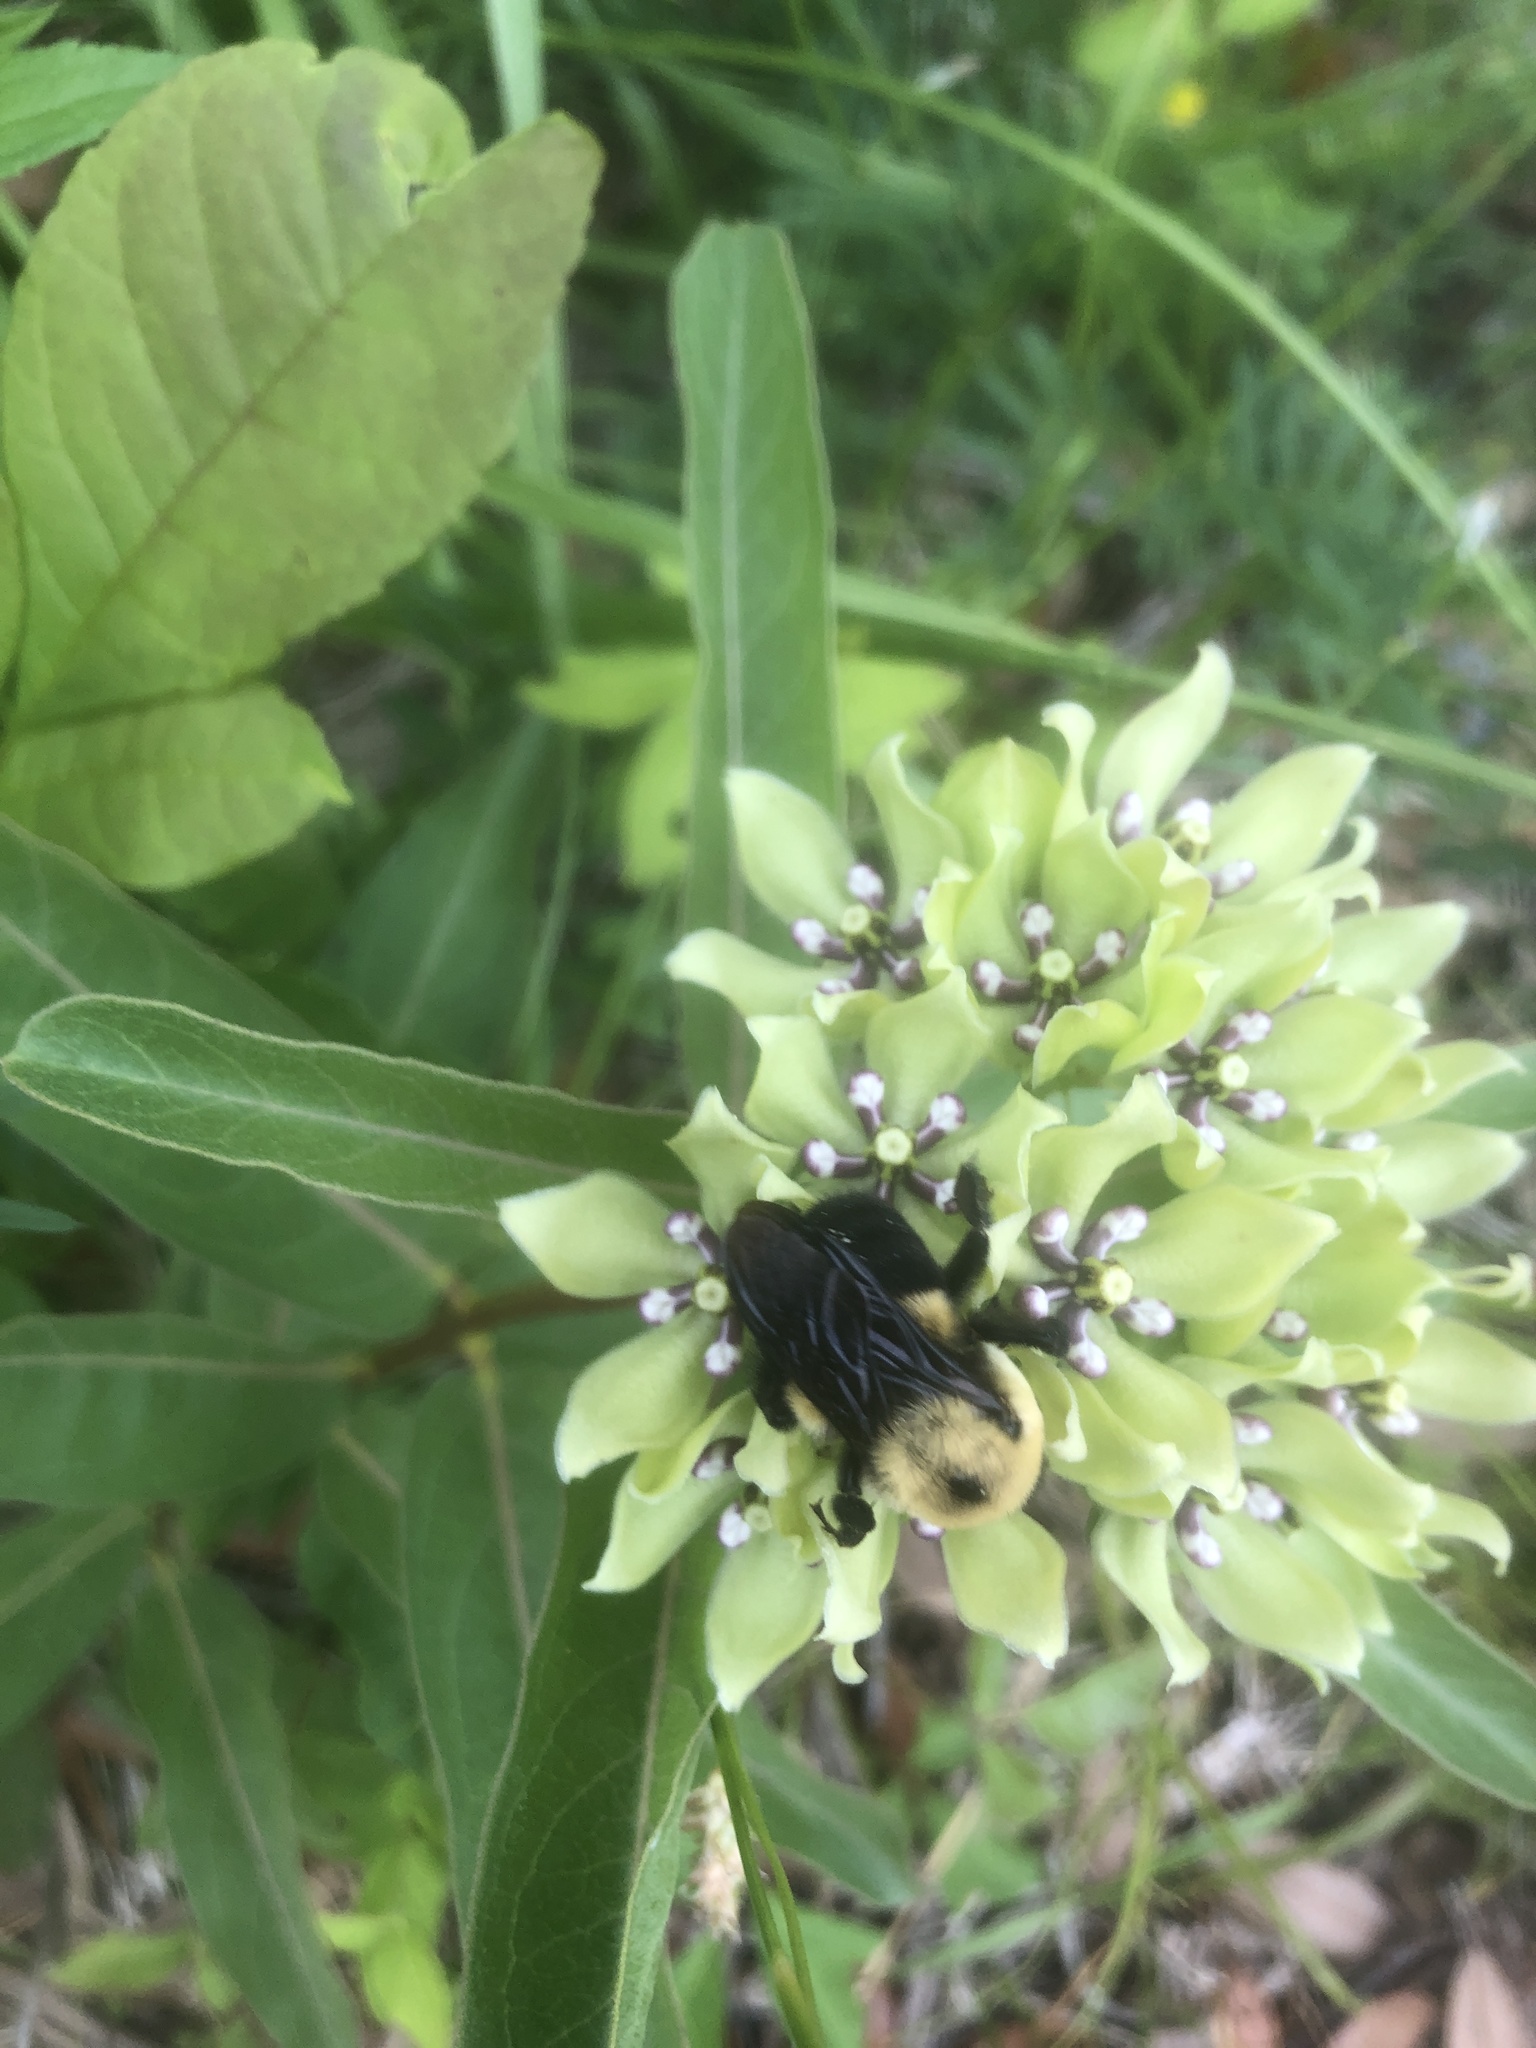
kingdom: Animalia
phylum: Arthropoda
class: Insecta
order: Hymenoptera
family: Apidae
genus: Bombus
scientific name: Bombus griseocollis
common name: Brown-belted bumble bee
